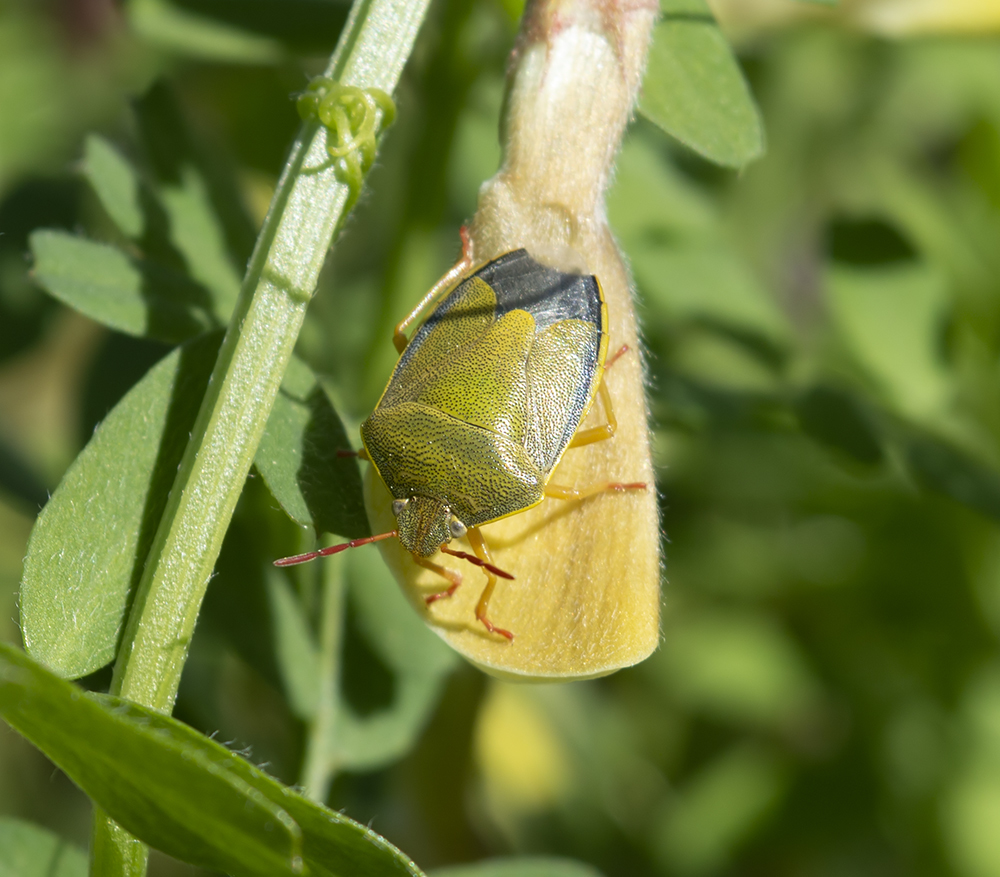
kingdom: Animalia
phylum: Arthropoda
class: Insecta
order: Hemiptera
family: Pentatomidae
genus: Piezodorus
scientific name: Piezodorus lituratus
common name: Stink bug
